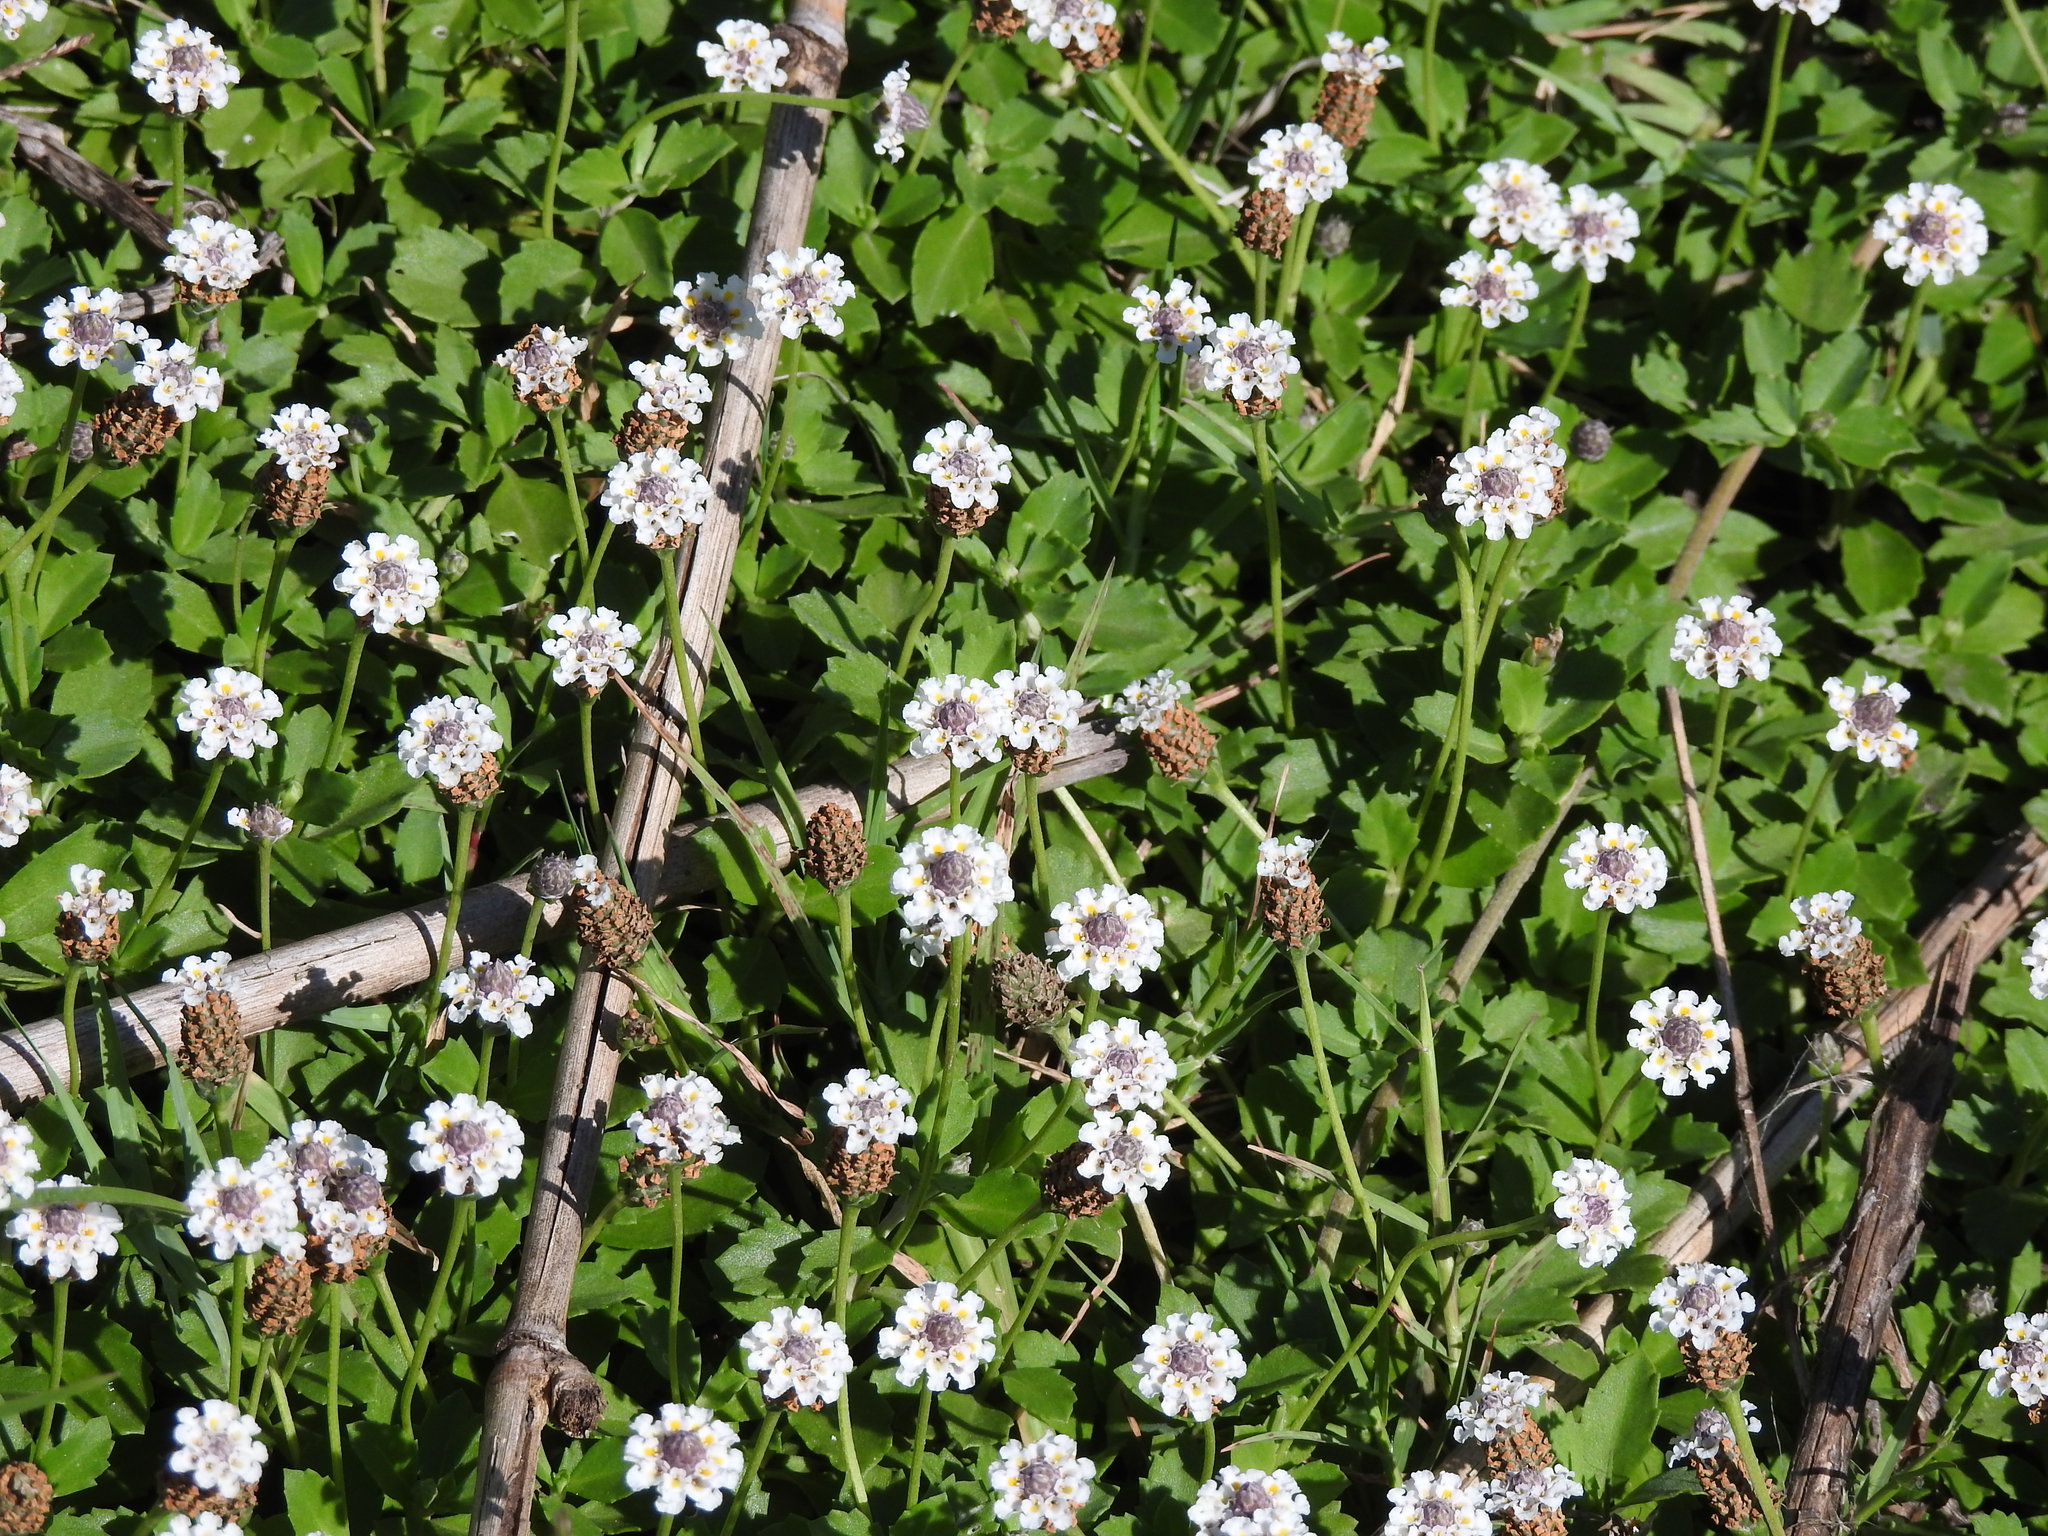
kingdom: Plantae
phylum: Tracheophyta
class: Magnoliopsida
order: Lamiales
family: Verbenaceae
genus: Phyla
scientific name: Phyla nodiflora
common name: Frogfruit
